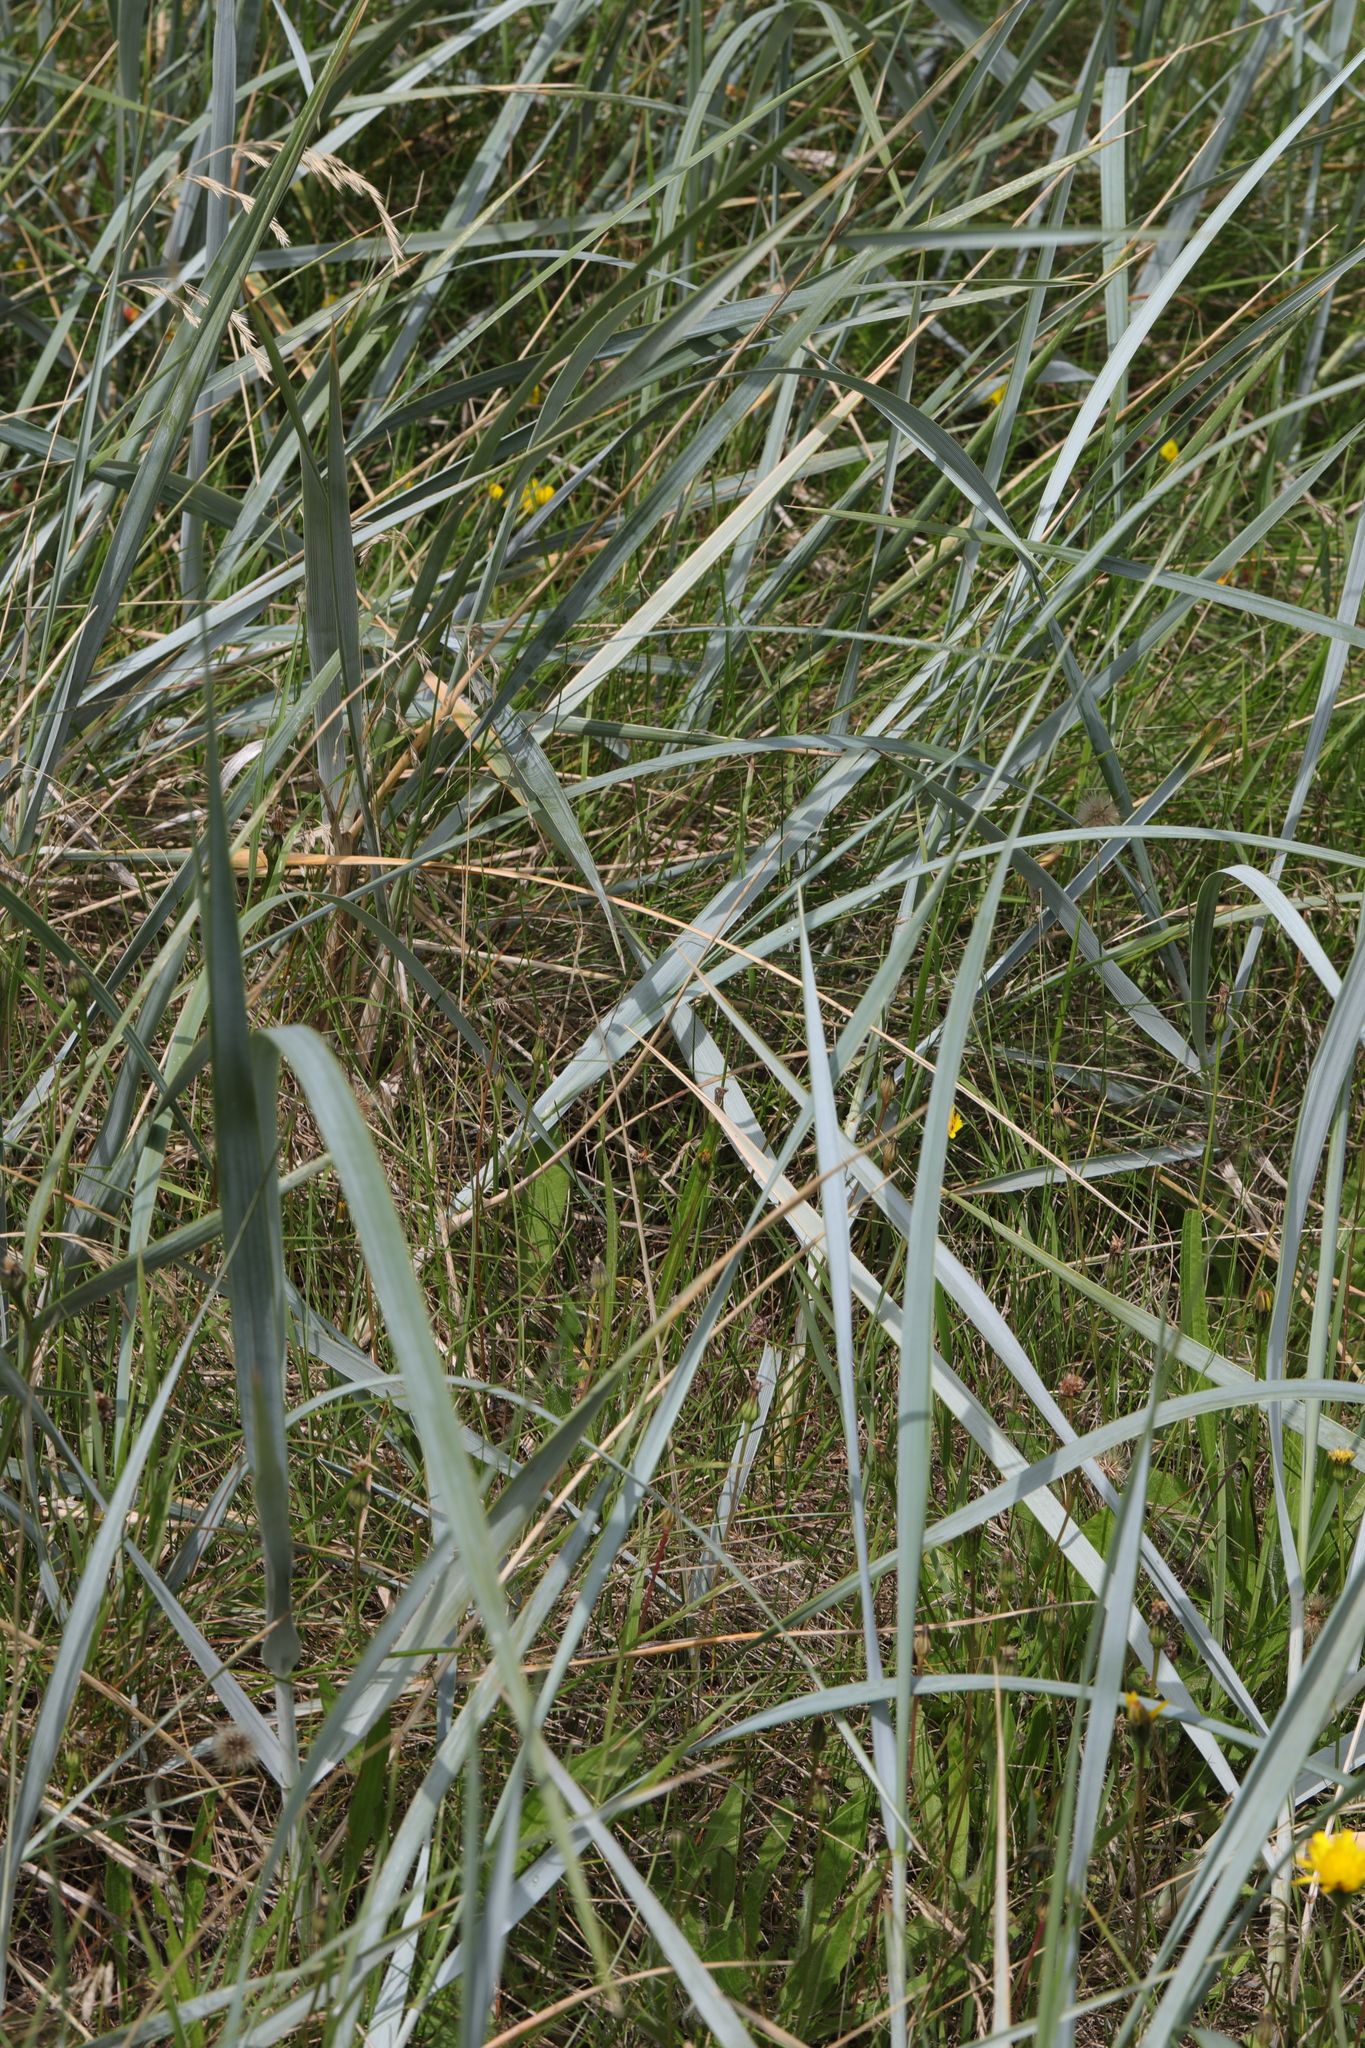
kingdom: Plantae
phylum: Tracheophyta
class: Liliopsida
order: Poales
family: Poaceae
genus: Leymus
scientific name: Leymus arenarius
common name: Lyme-grass
